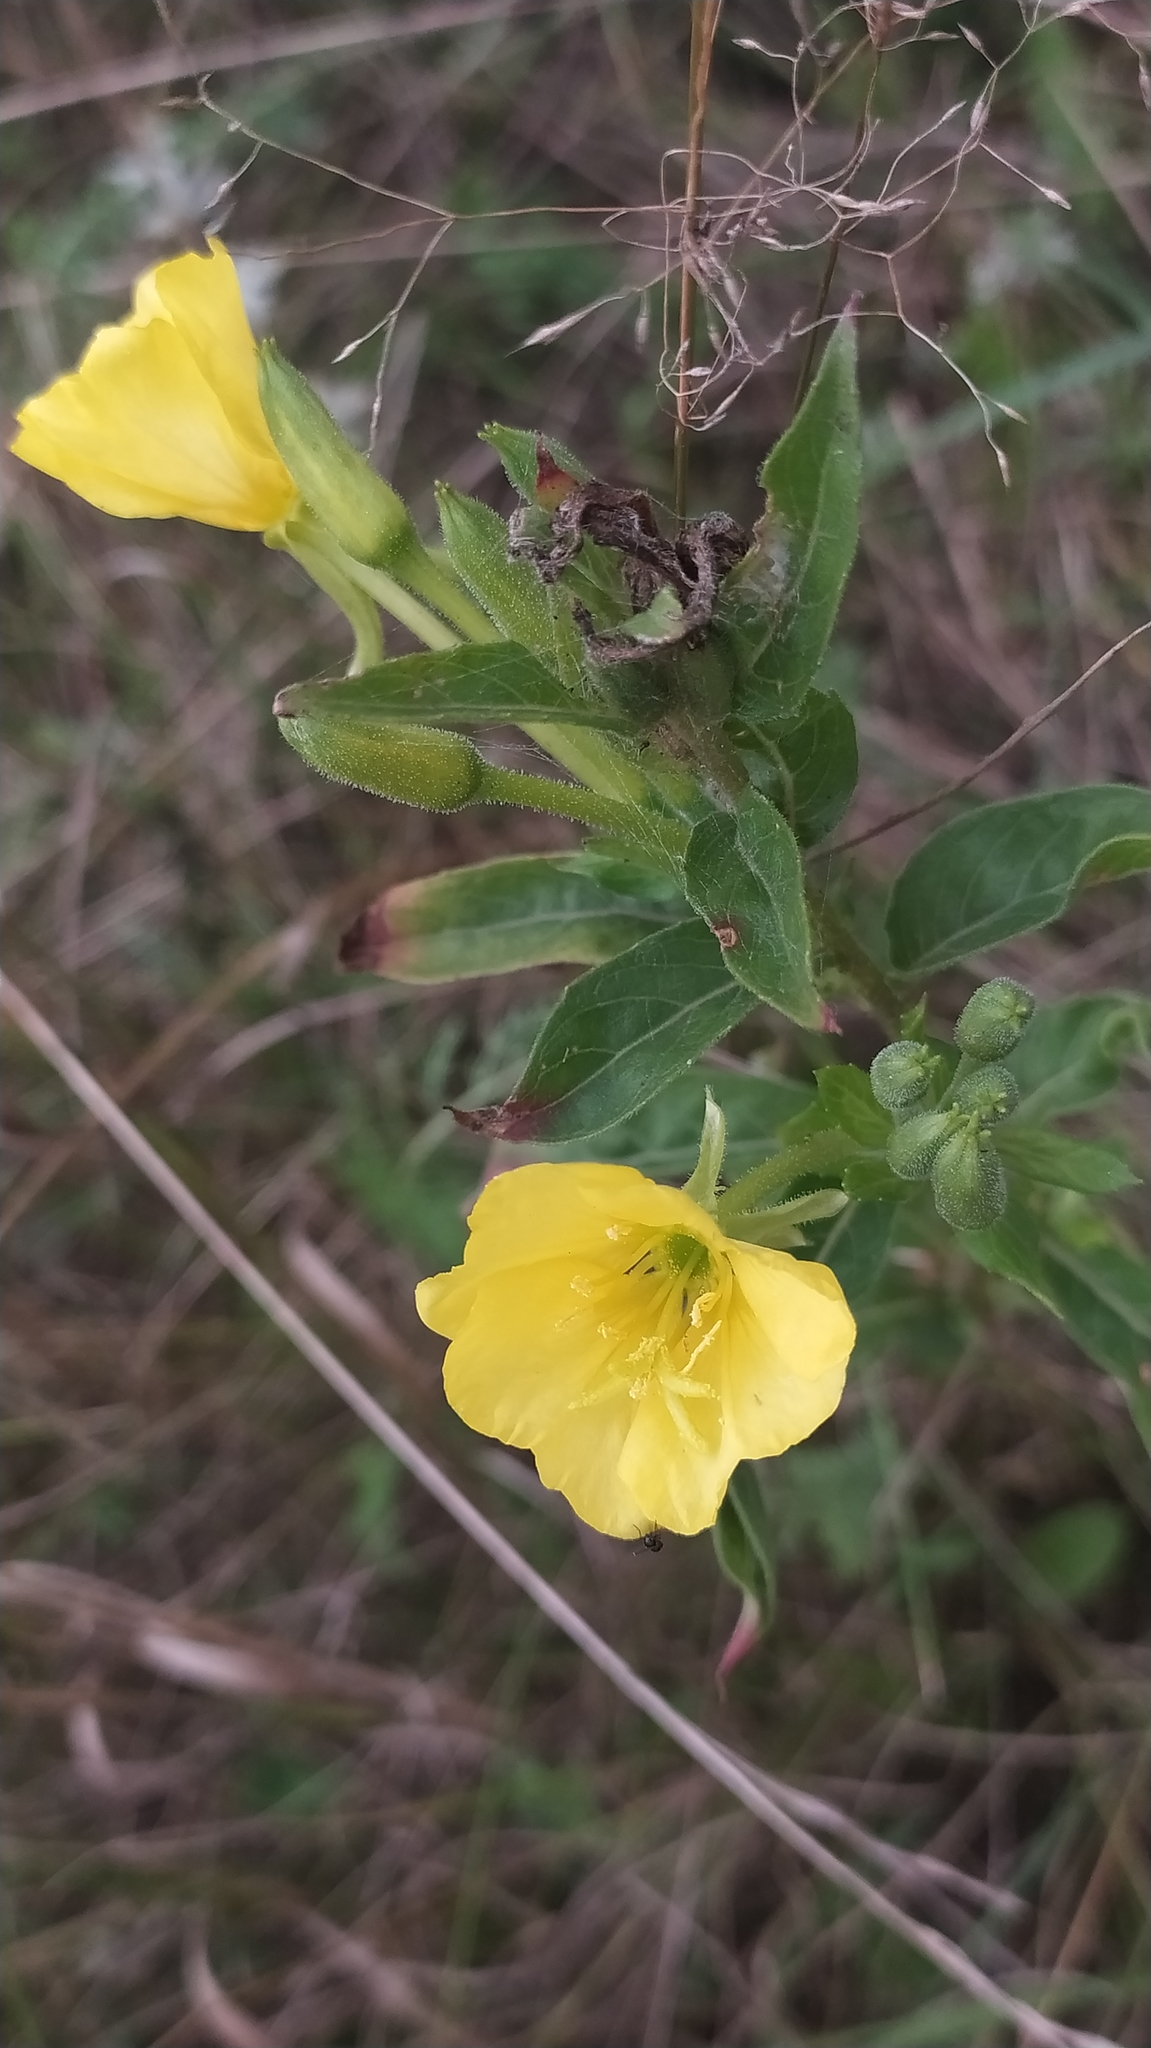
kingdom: Plantae
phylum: Tracheophyta
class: Magnoliopsida
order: Myrtales
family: Onagraceae
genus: Oenothera
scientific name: Oenothera biennis
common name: Common evening-primrose
